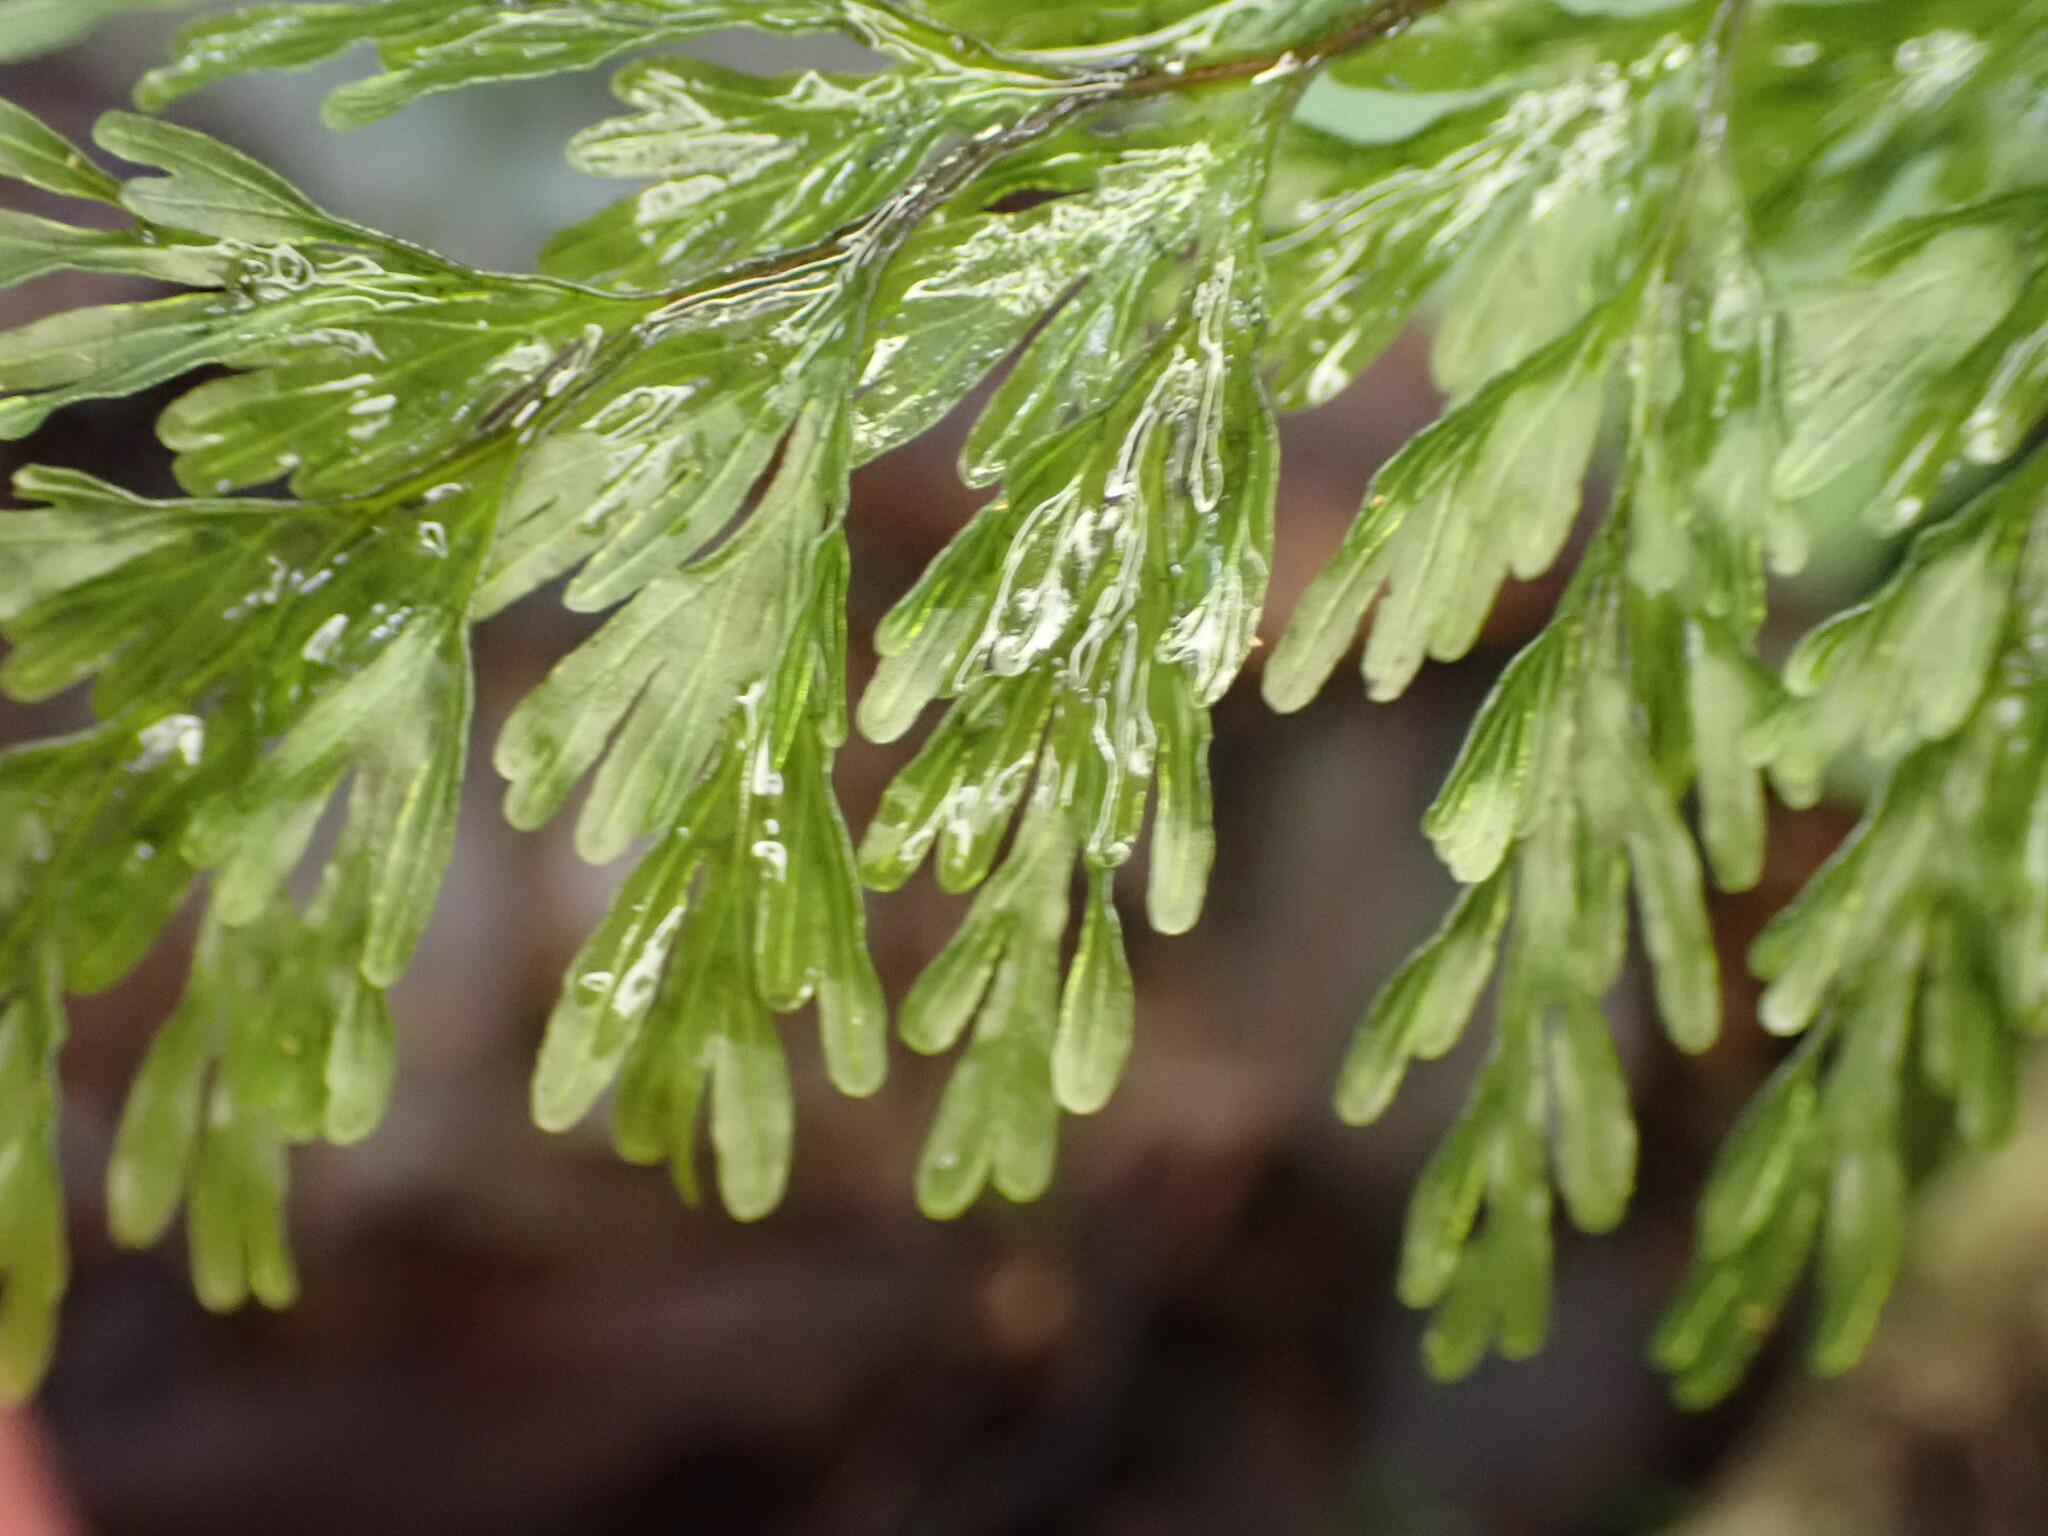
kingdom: Plantae
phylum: Tracheophyta
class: Polypodiopsida
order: Hymenophyllales
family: Hymenophyllaceae
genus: Hymenophyllum
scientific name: Hymenophyllum demissum
